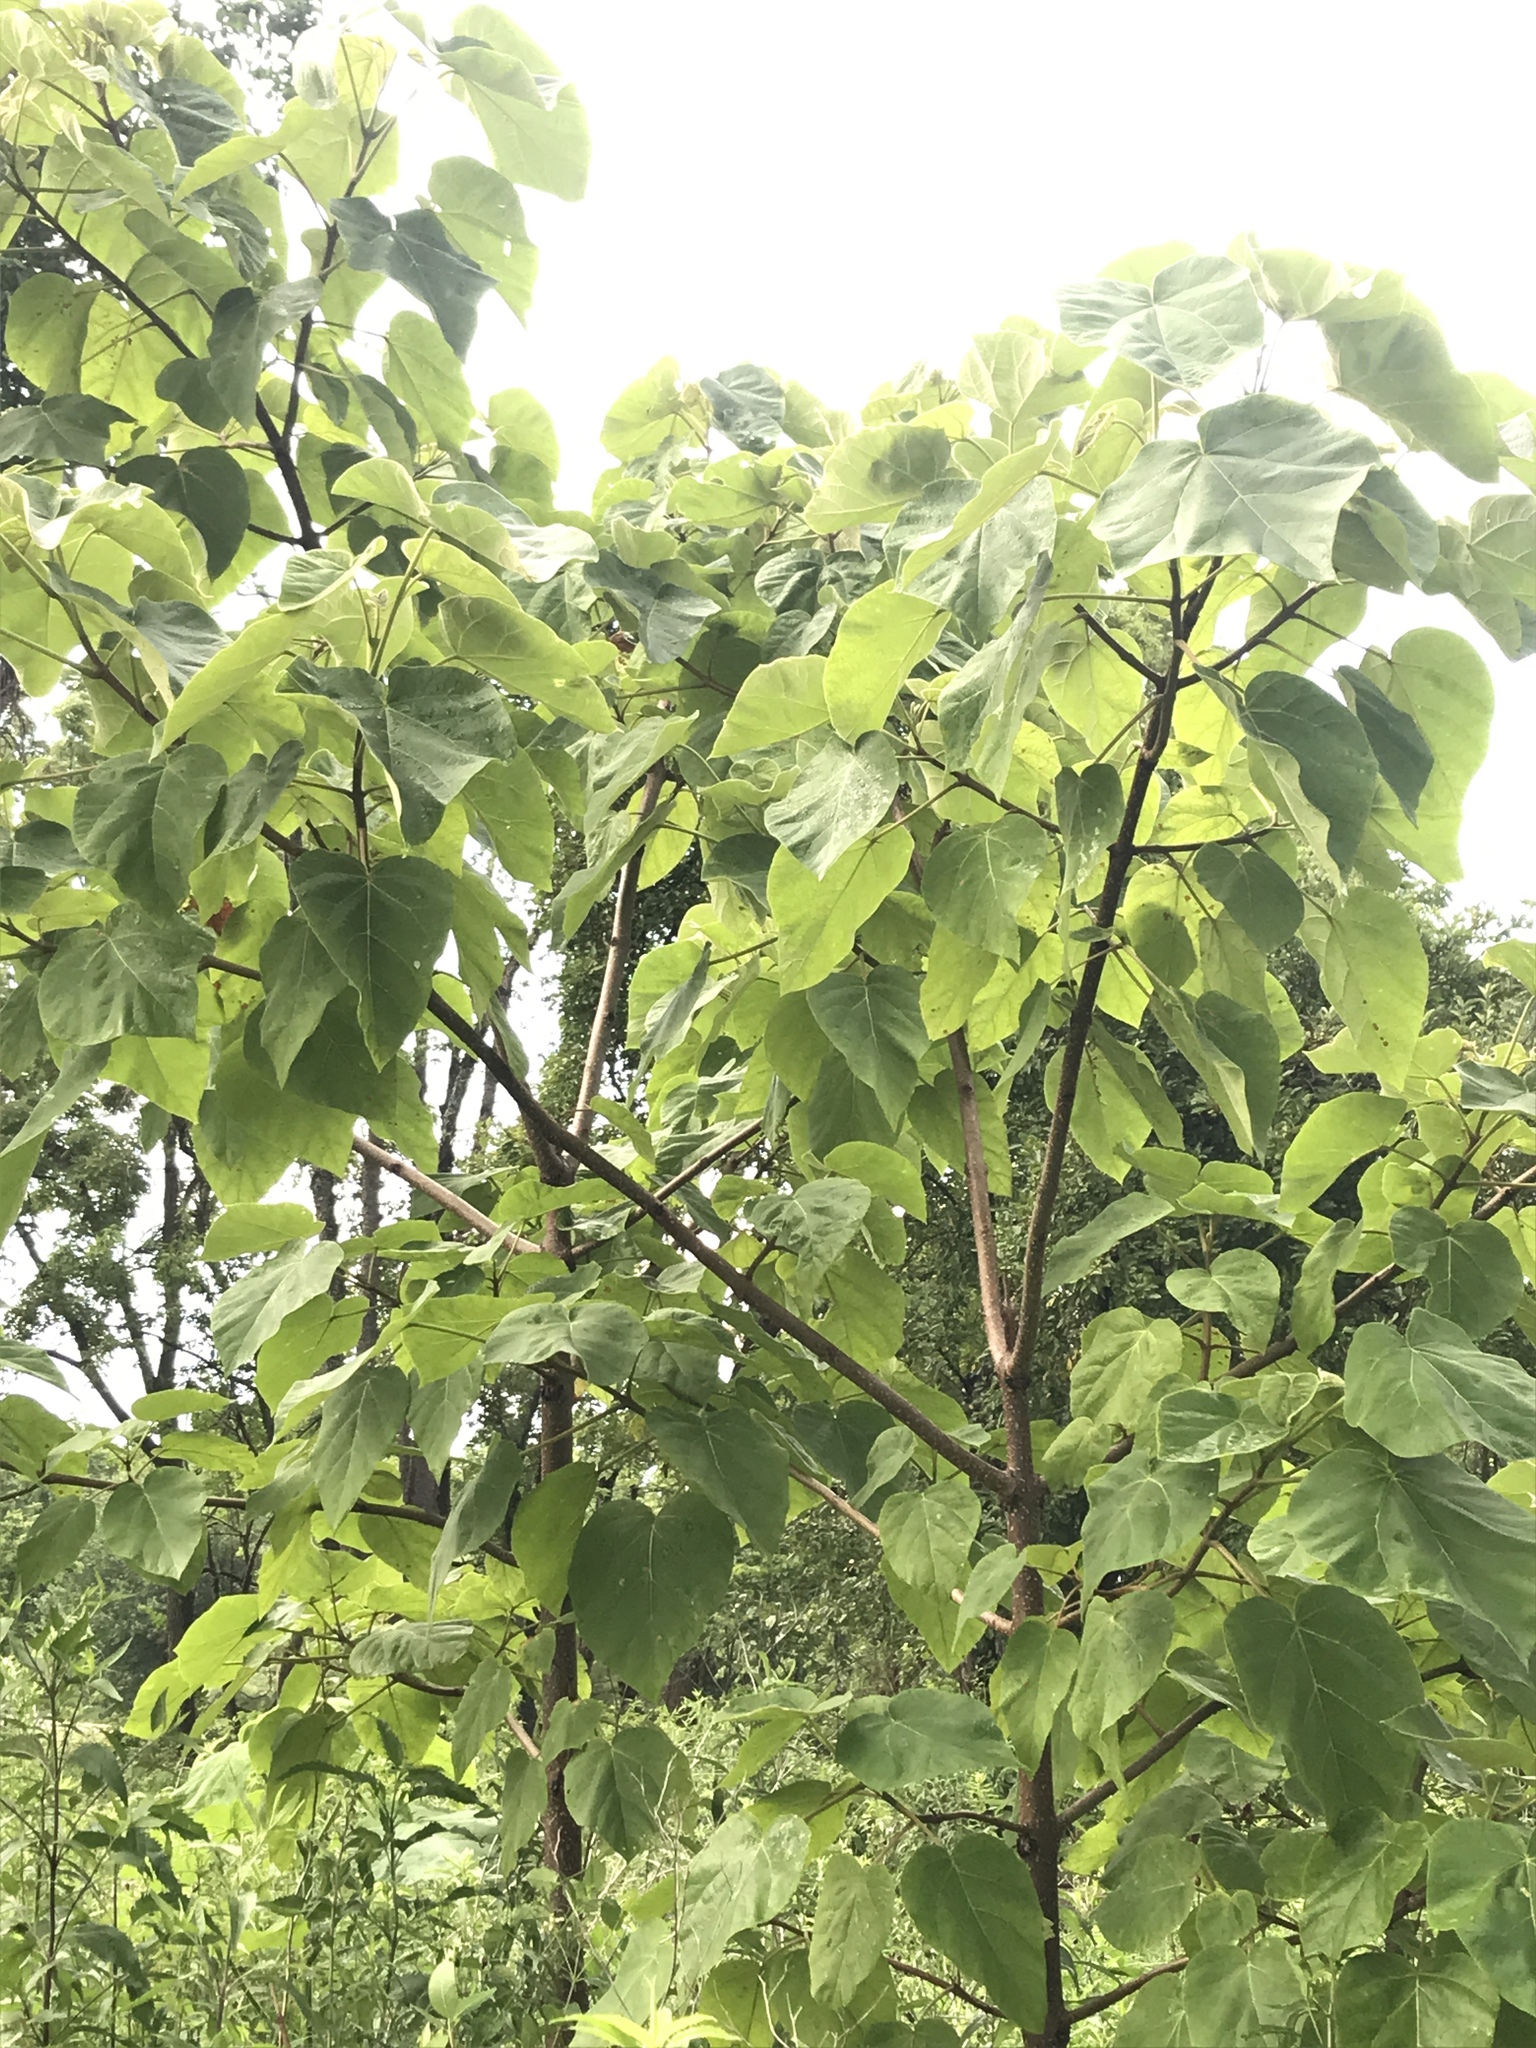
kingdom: Plantae
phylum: Tracheophyta
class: Magnoliopsida
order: Lamiales
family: Paulowniaceae
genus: Paulownia
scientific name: Paulownia tomentosa
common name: Foxglove-tree
